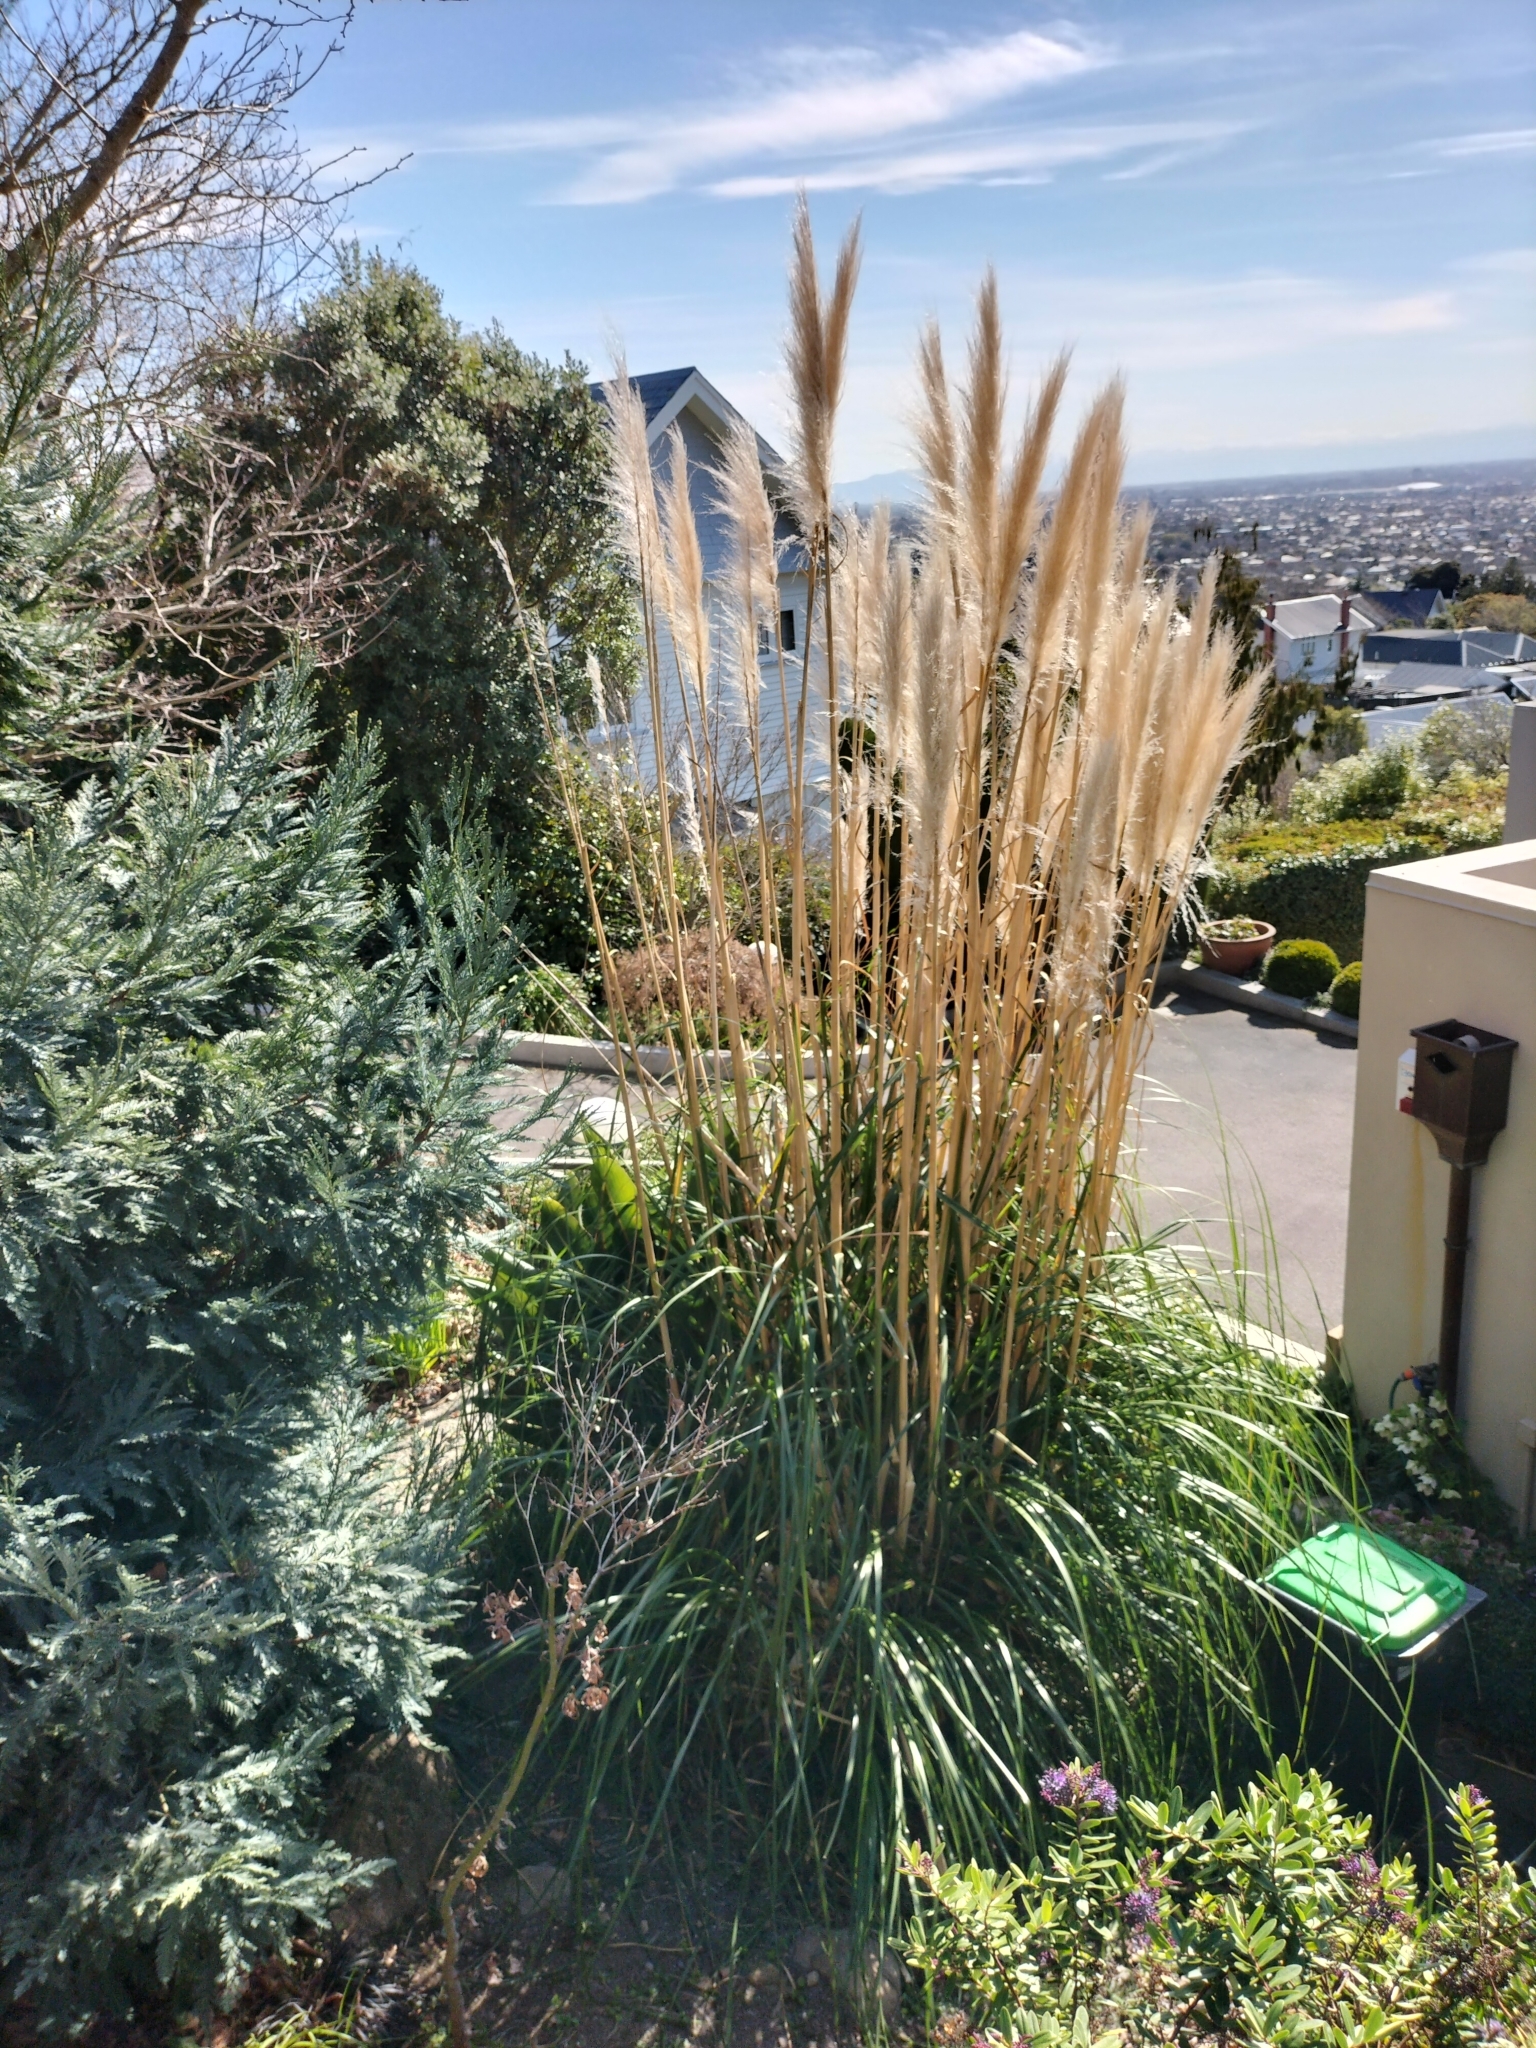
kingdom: Plantae
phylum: Tracheophyta
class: Liliopsida
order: Poales
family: Poaceae
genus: Cortaderia
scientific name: Cortaderia selloana
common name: Uruguayan pampas grass
